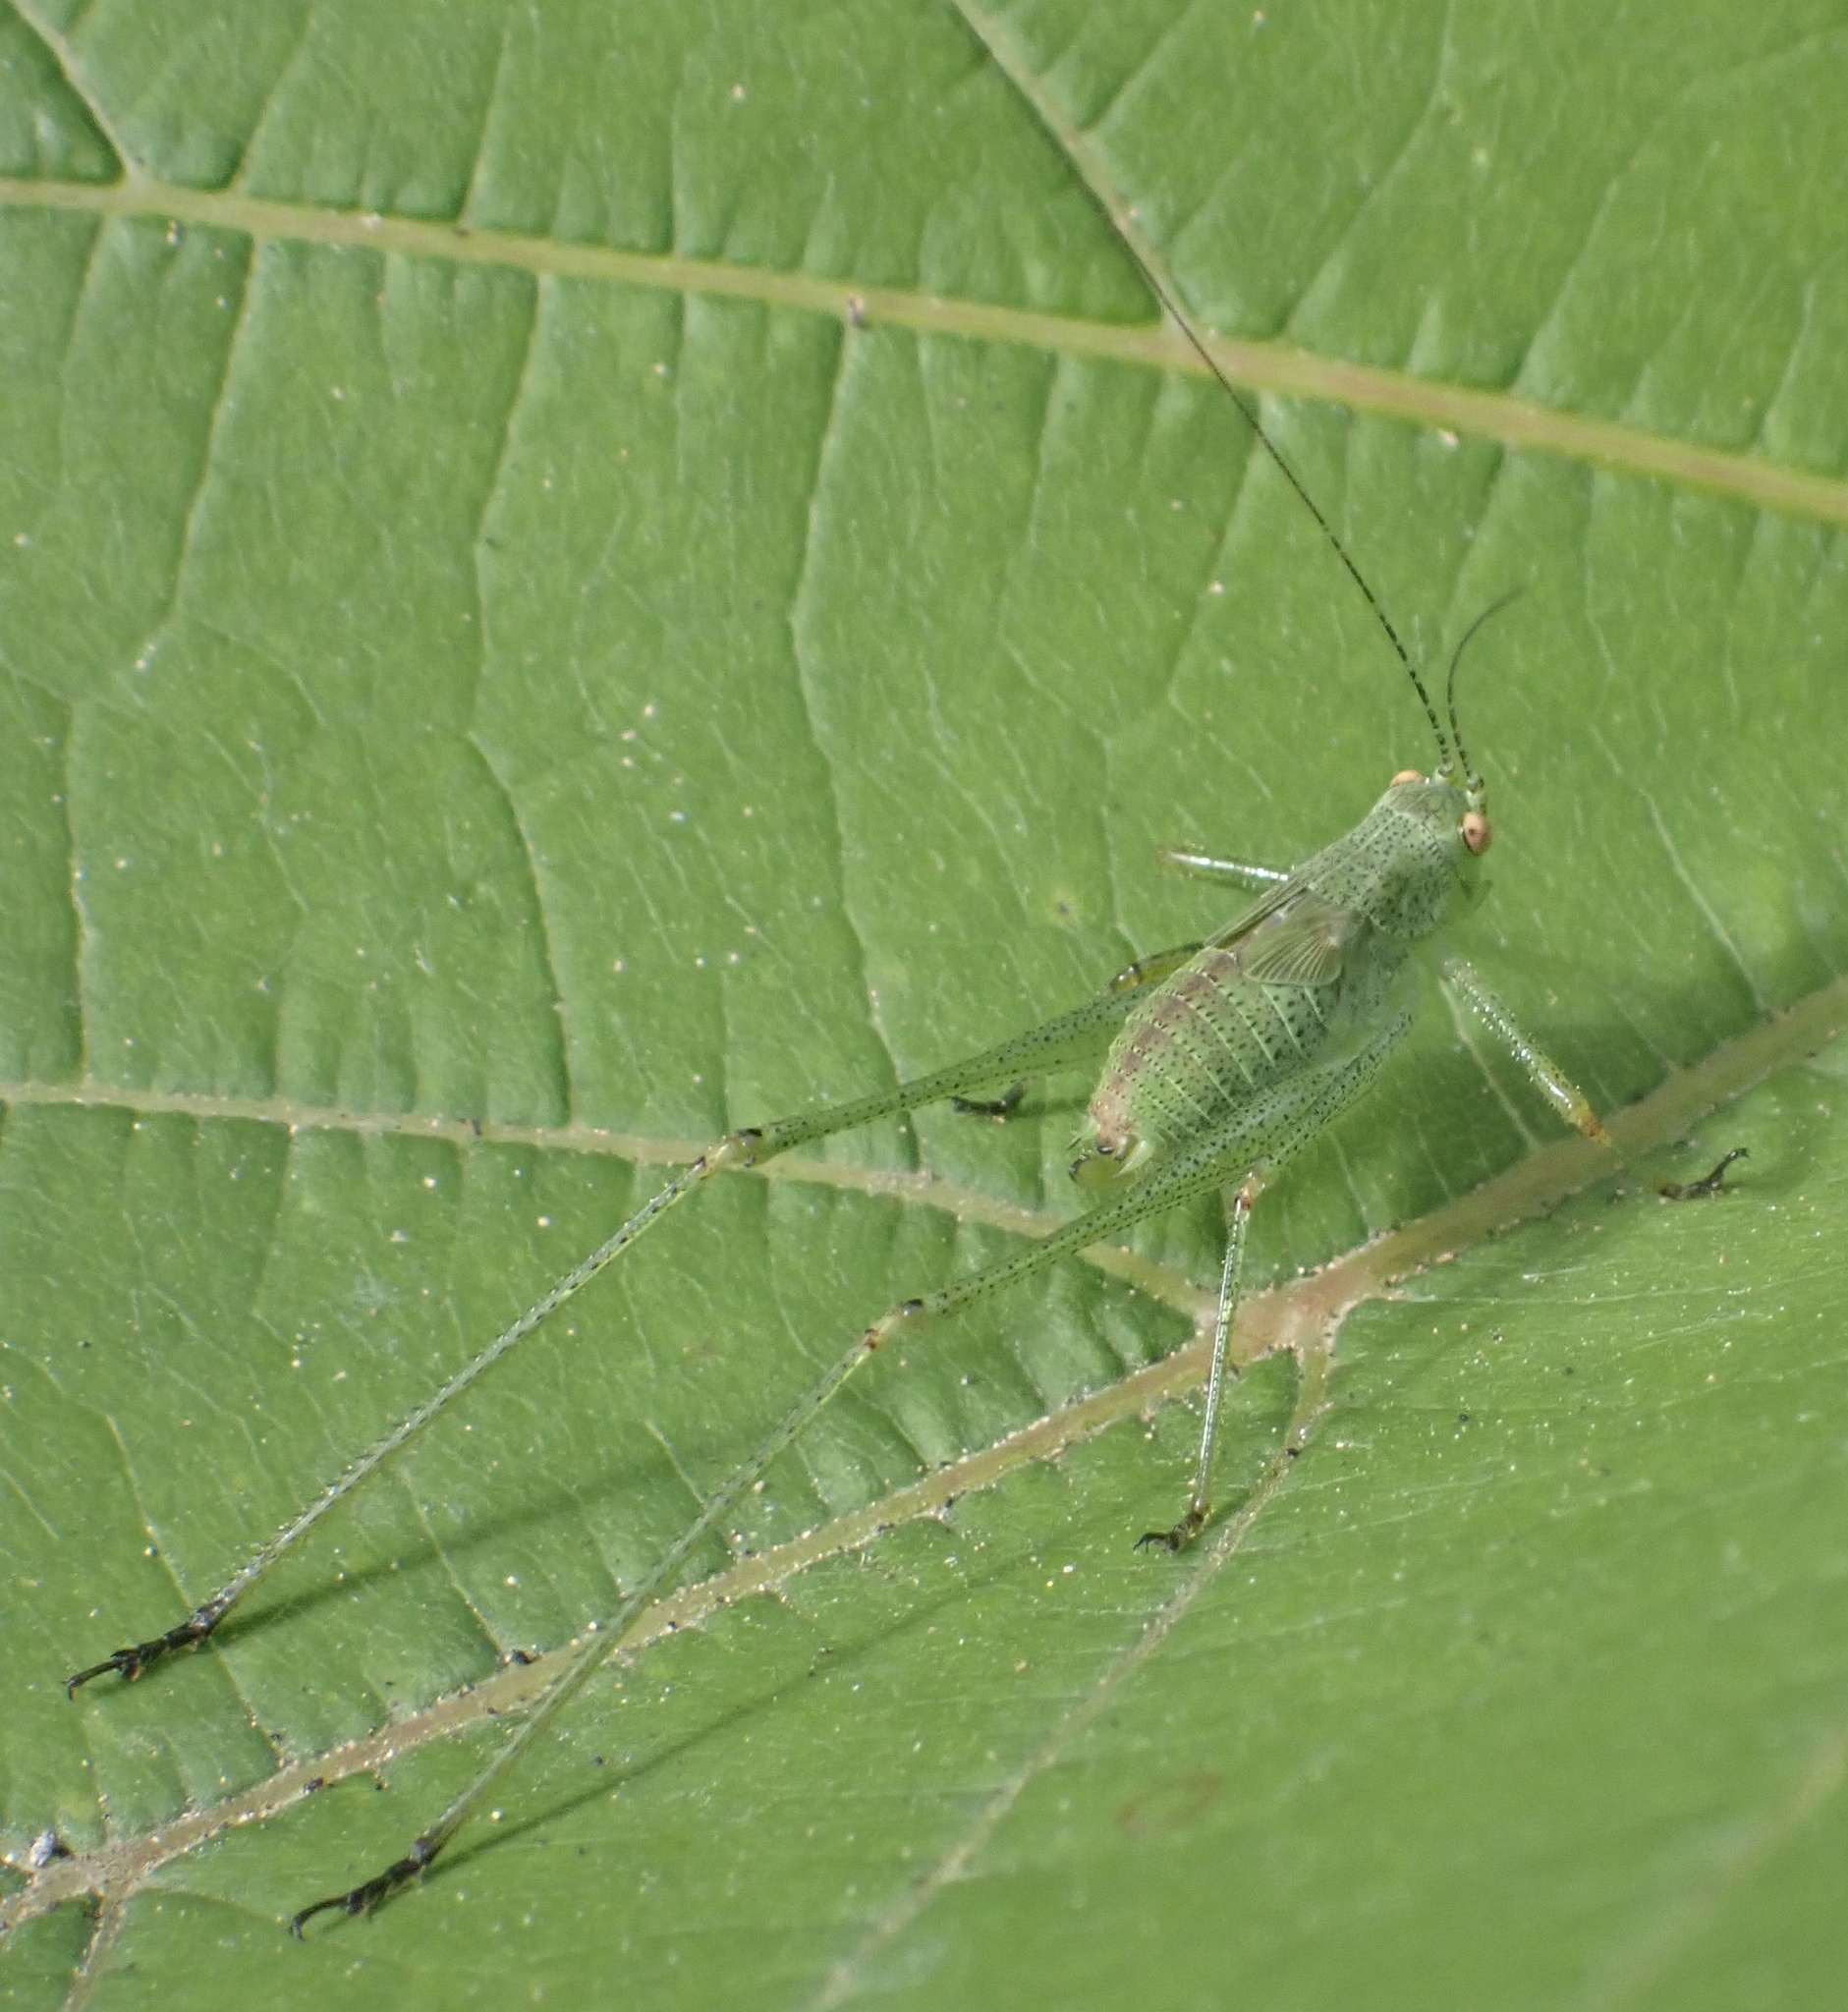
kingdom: Animalia
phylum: Arthropoda
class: Insecta
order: Orthoptera
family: Tettigoniidae
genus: Phaneroptera
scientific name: Phaneroptera nana
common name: Southern sickle bush-cricket
